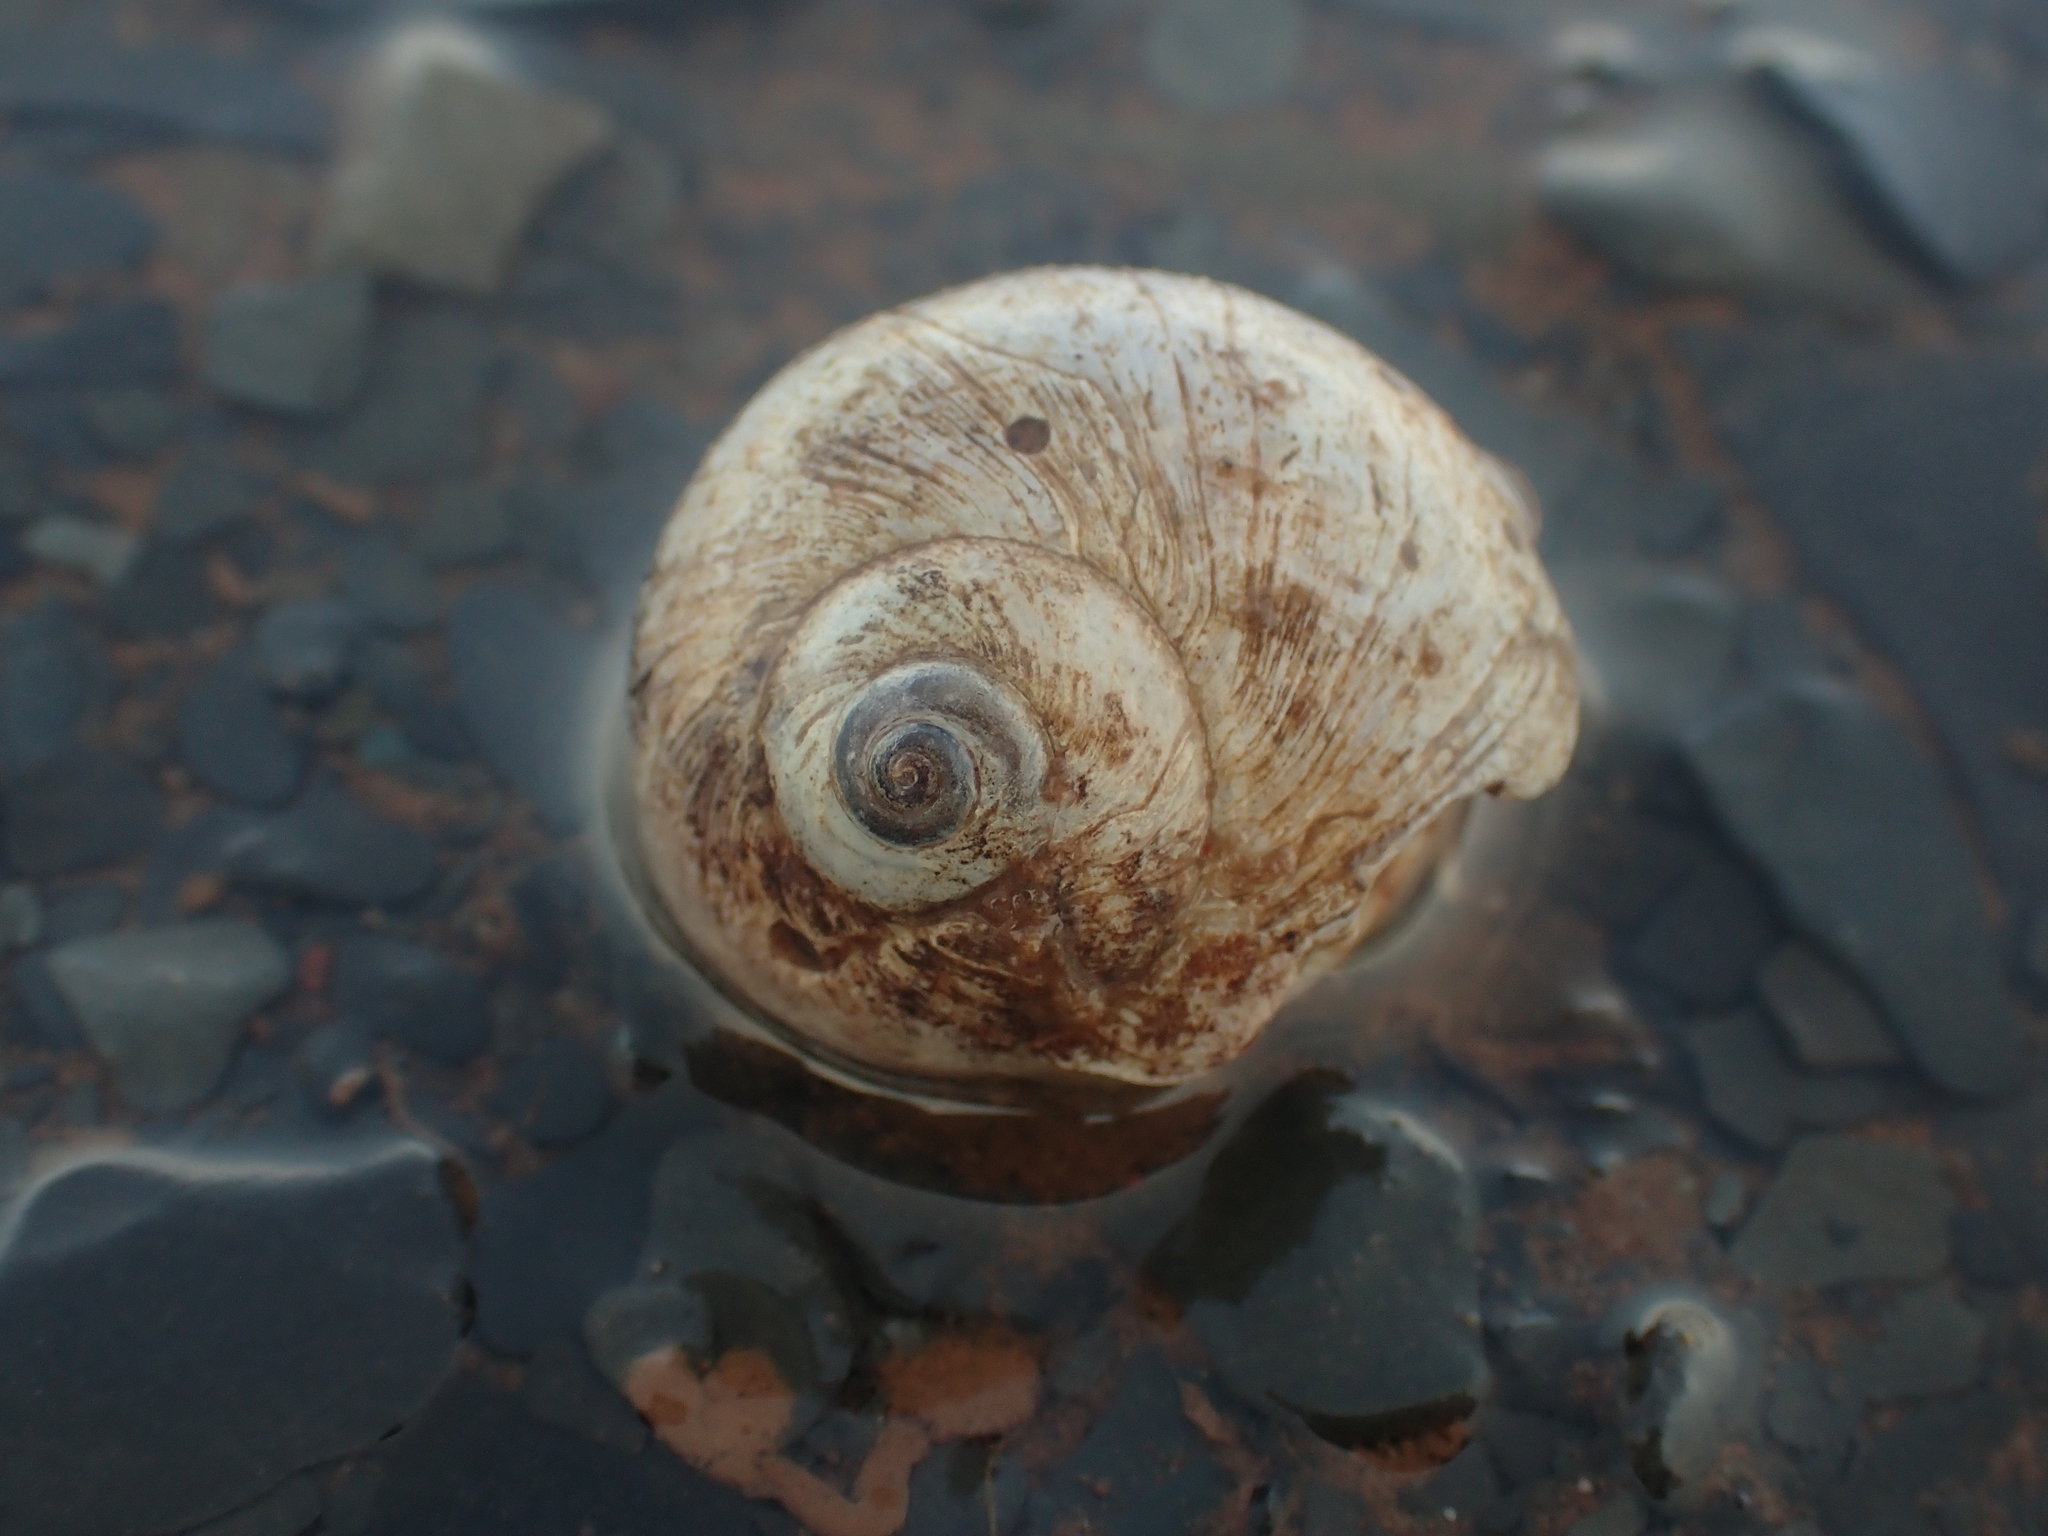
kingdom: Animalia
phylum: Mollusca
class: Gastropoda
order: Littorinimorpha
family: Naticidae
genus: Euspira
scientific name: Euspira heros
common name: Common northern moonsnail
